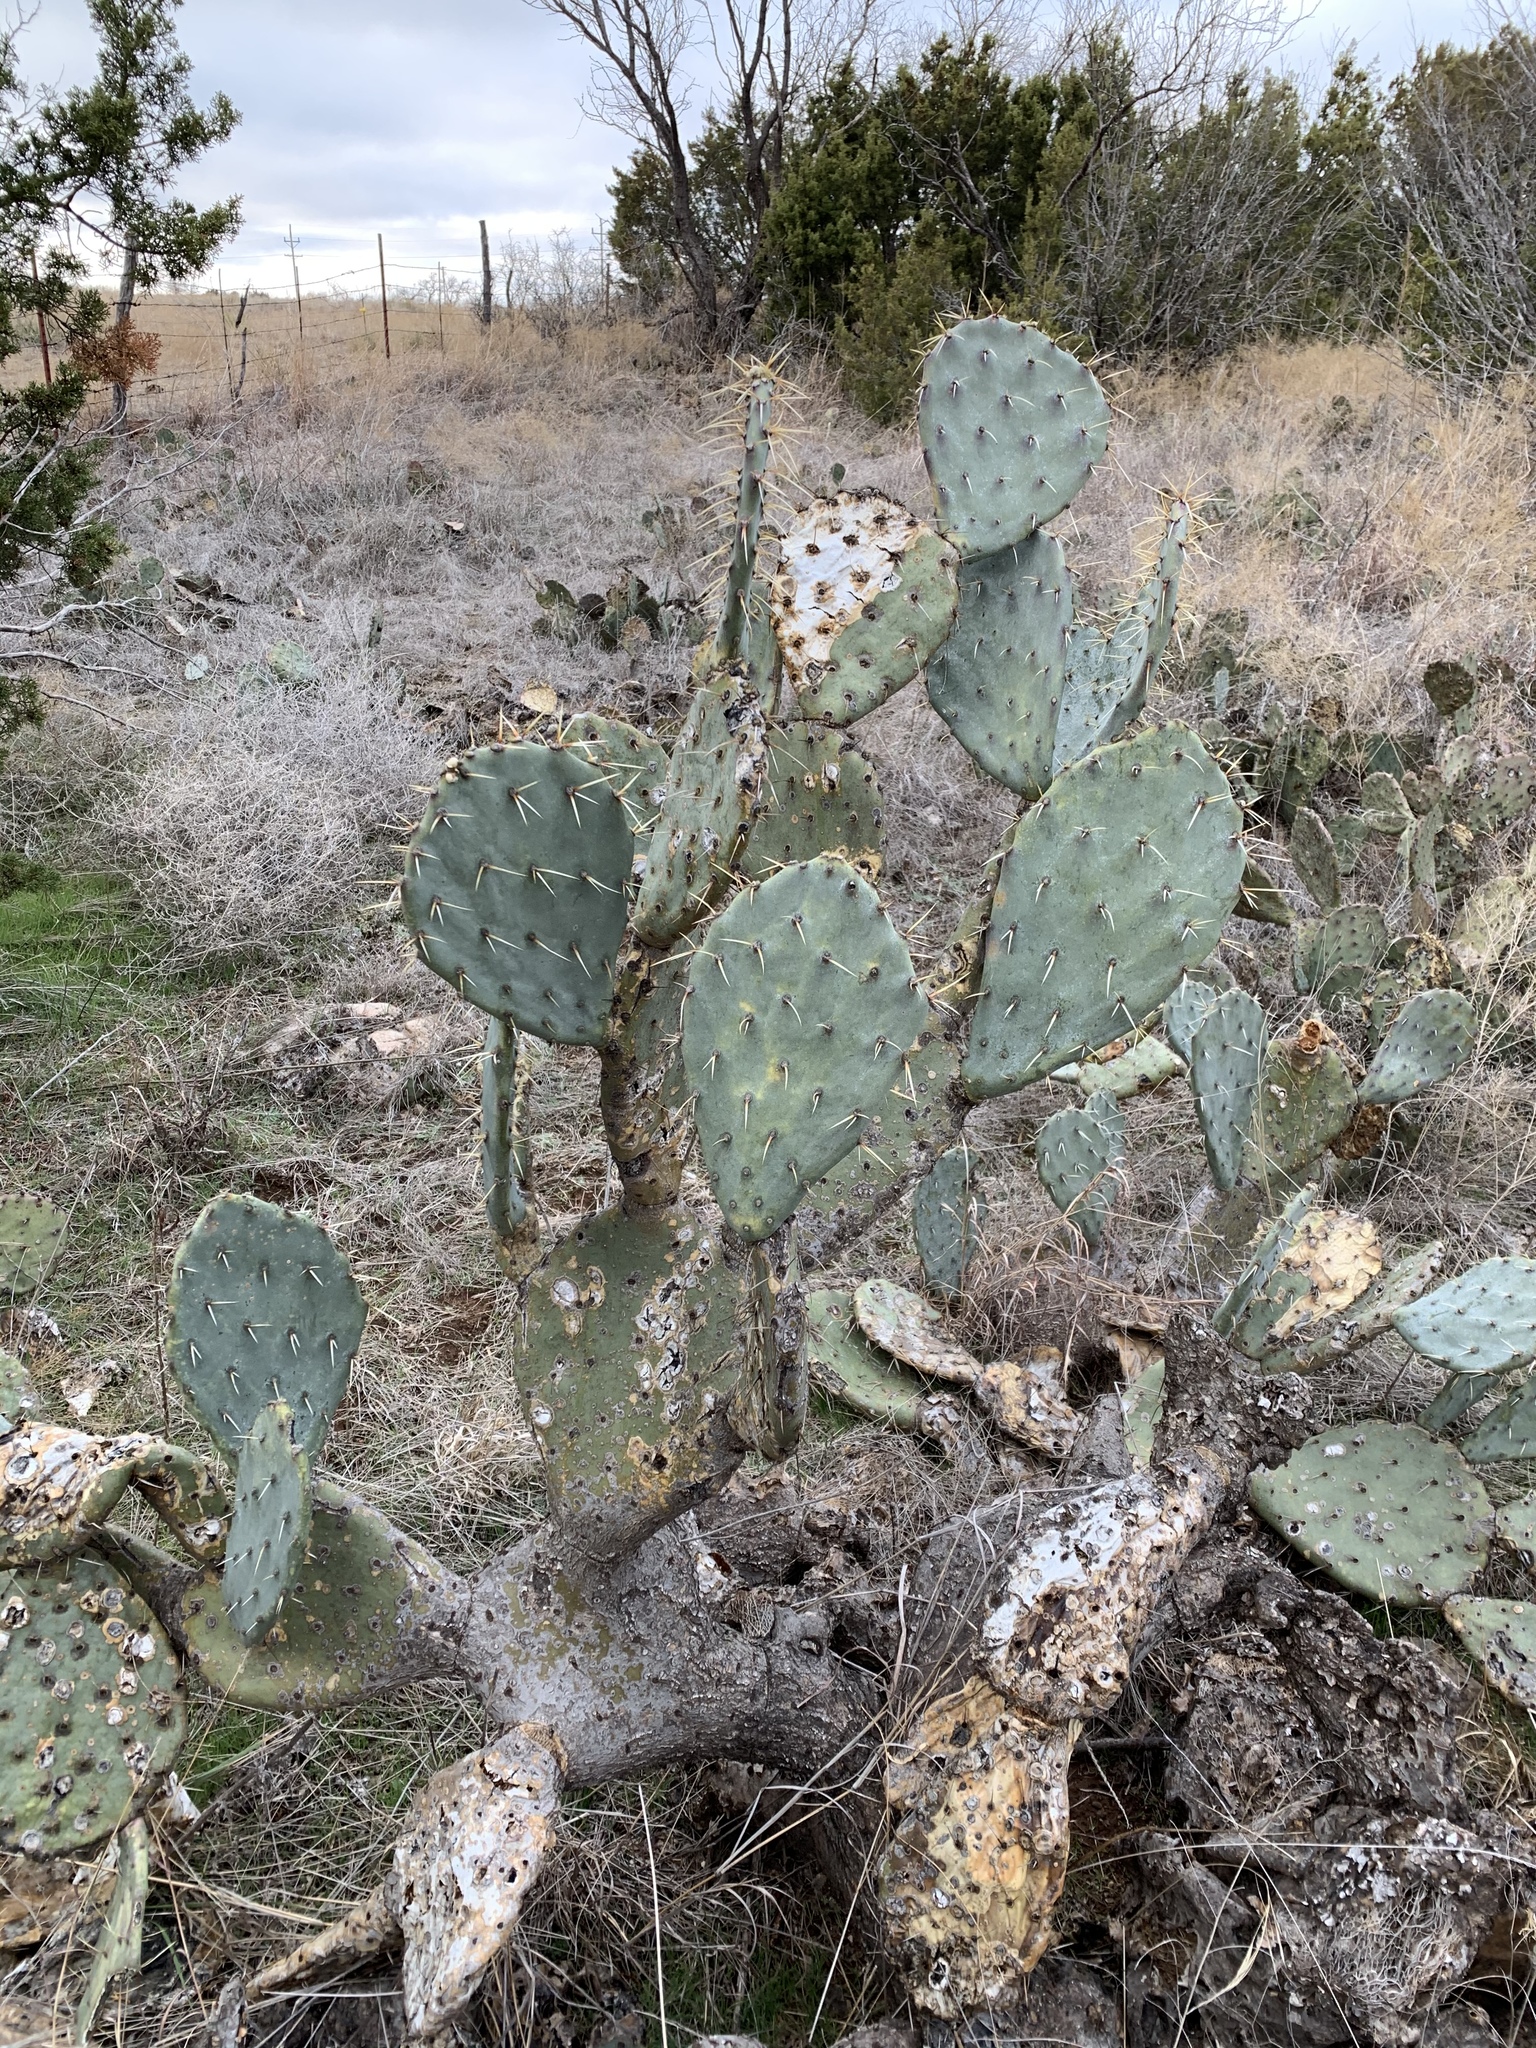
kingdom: Plantae
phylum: Tracheophyta
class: Magnoliopsida
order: Caryophyllales
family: Cactaceae
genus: Opuntia
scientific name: Opuntia engelmannii
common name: Cactus-apple
